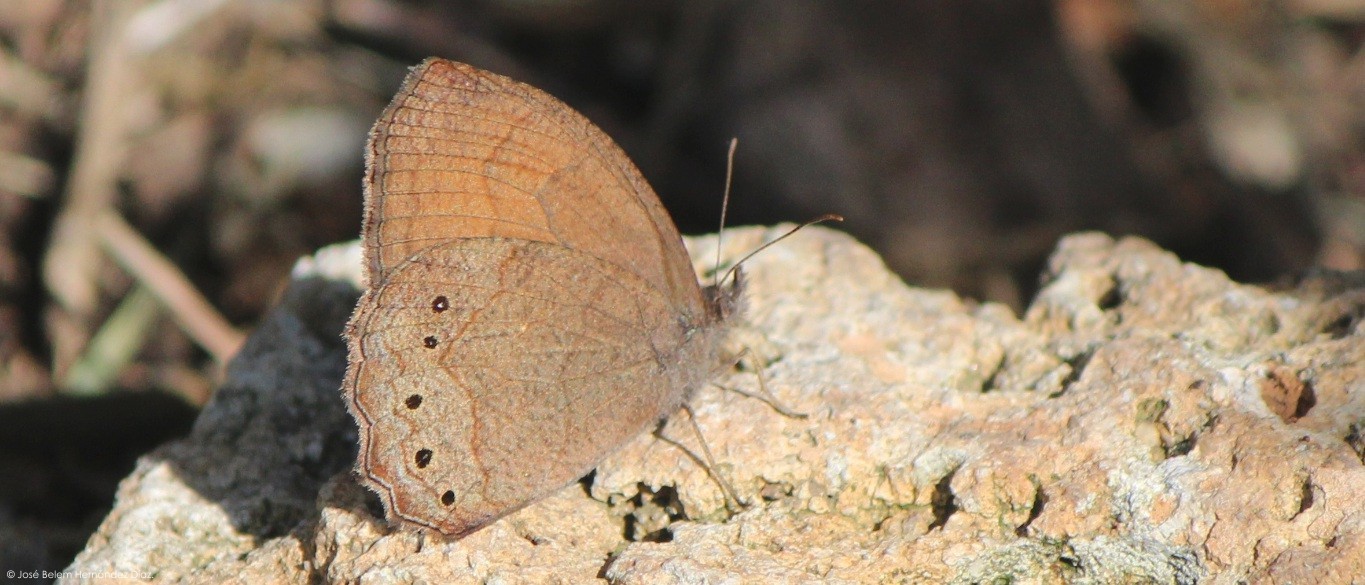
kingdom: Animalia
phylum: Arthropoda
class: Insecta
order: Lepidoptera
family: Nymphalidae
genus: Pindis
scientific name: Pindis squamistriga
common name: Variable satyr
